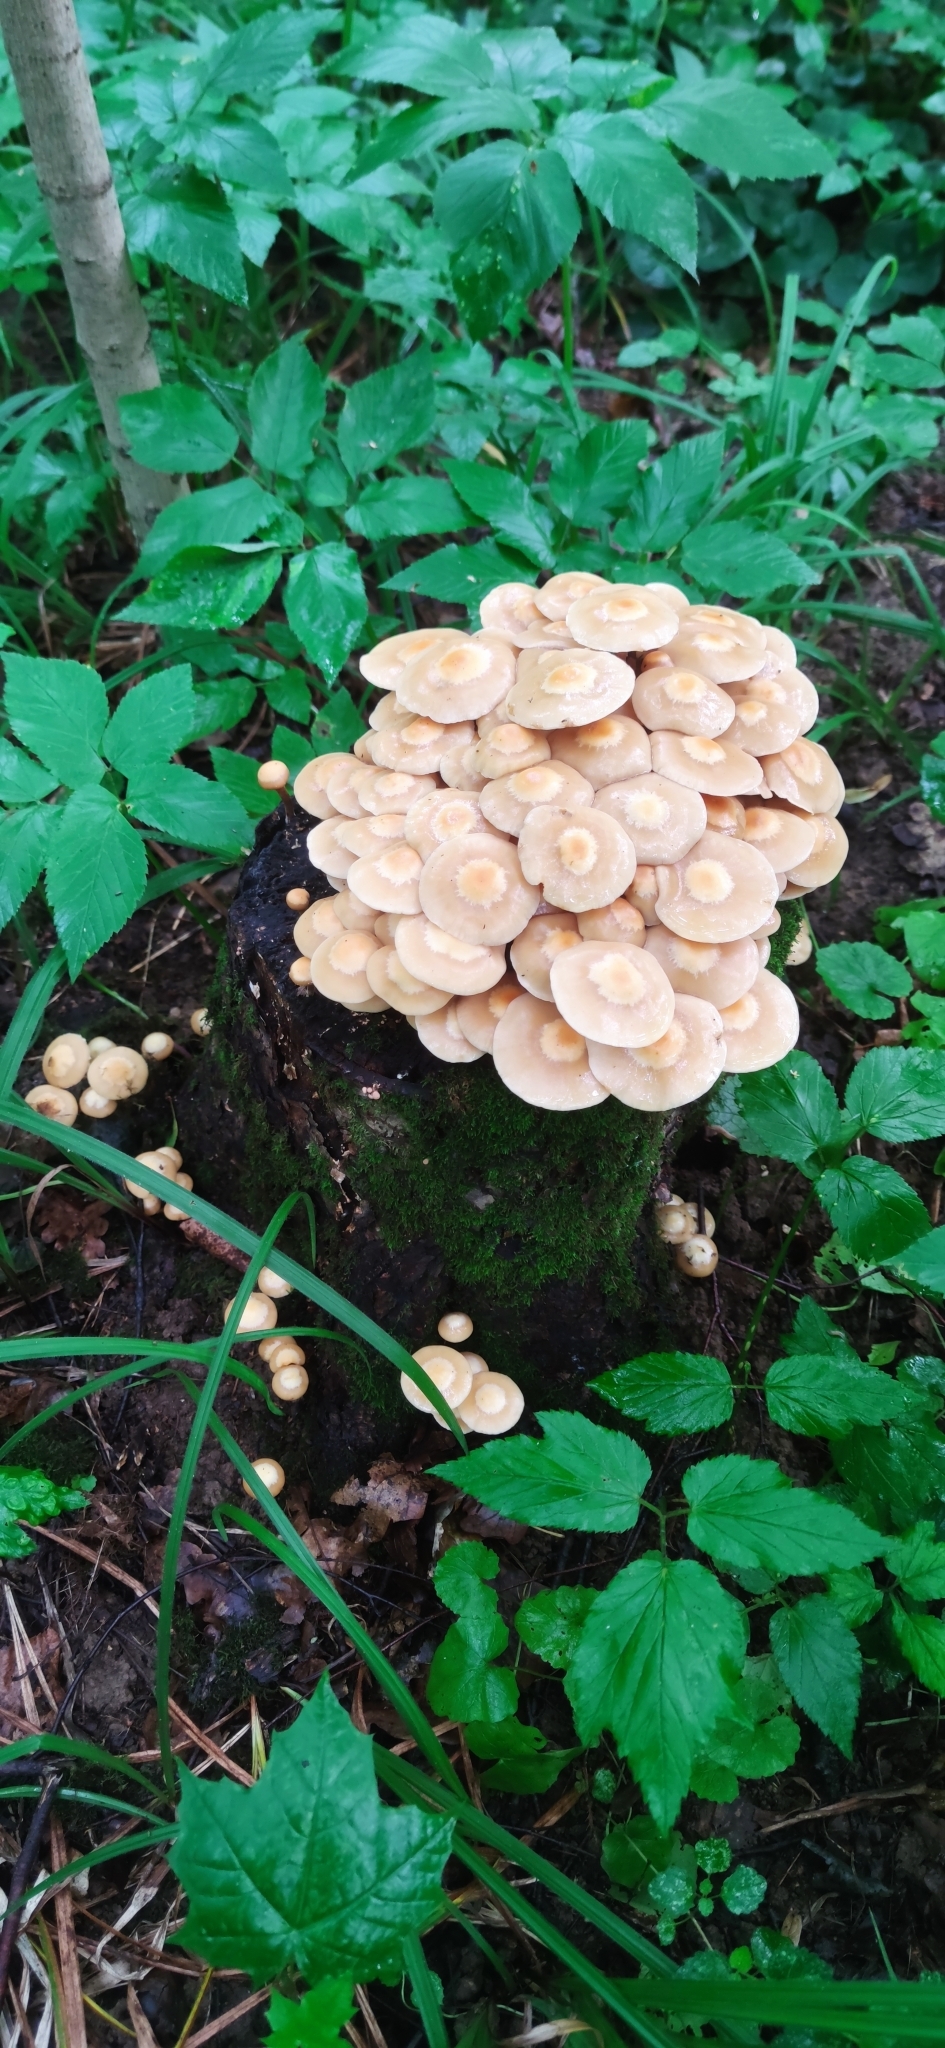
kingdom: Fungi
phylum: Basidiomycota
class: Agaricomycetes
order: Agaricales
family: Strophariaceae
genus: Kuehneromyces
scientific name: Kuehneromyces mutabilis
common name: Sheathed woodtuft
